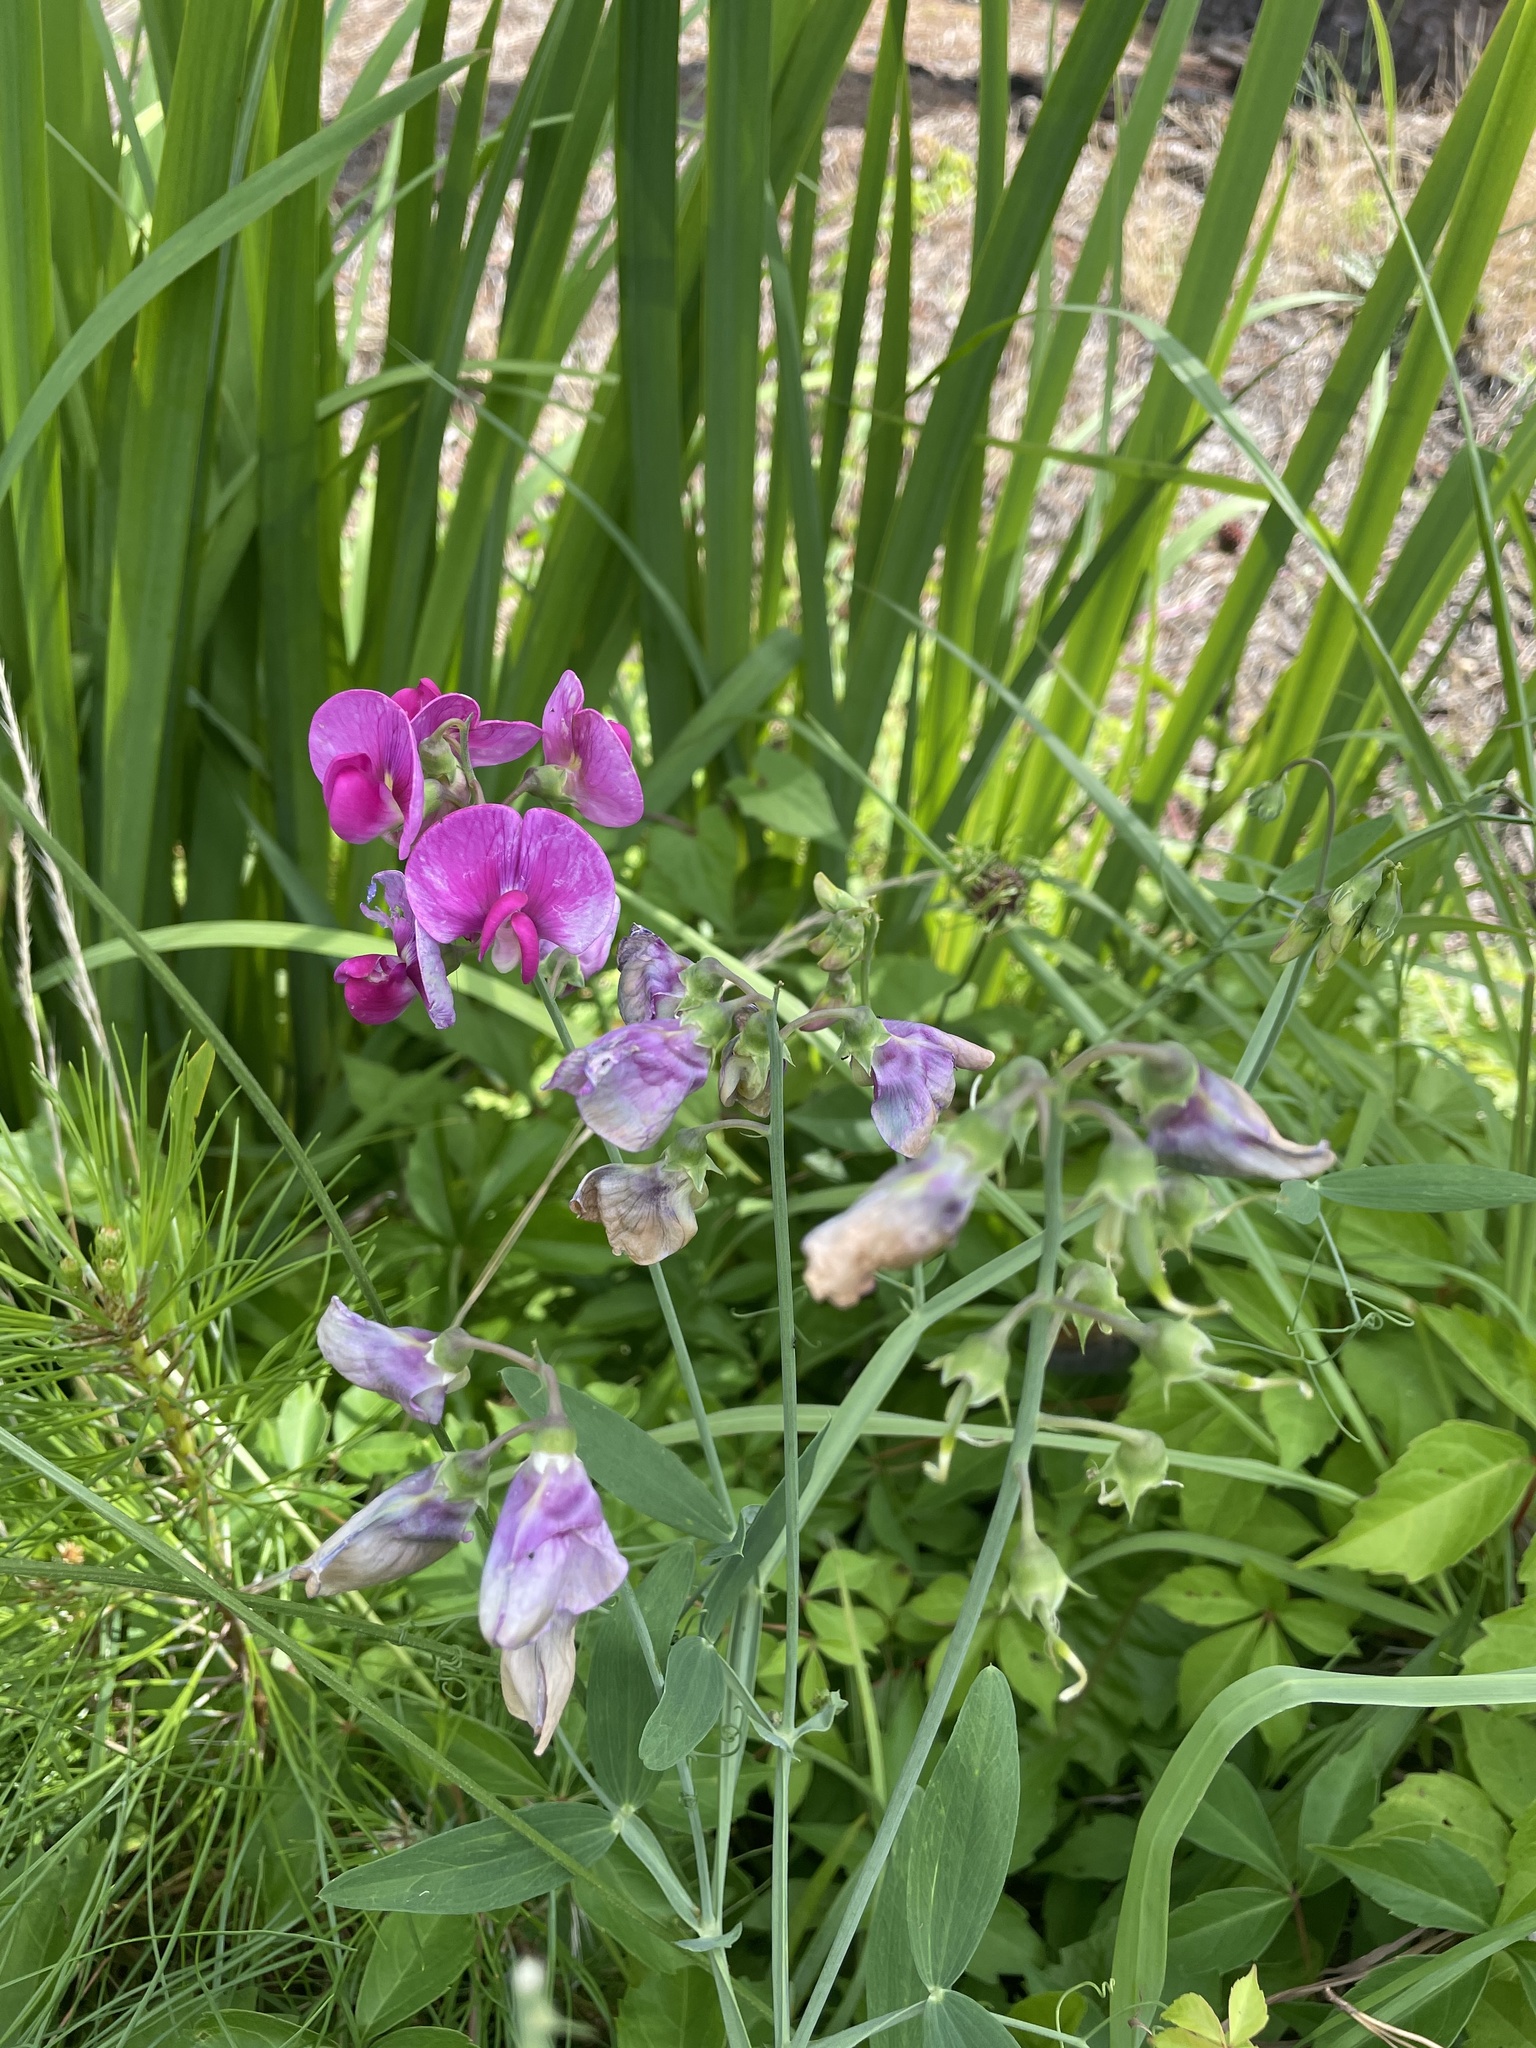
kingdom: Plantae
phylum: Tracheophyta
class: Magnoliopsida
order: Fabales
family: Fabaceae
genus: Lathyrus
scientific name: Lathyrus latifolius
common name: Perennial pea
